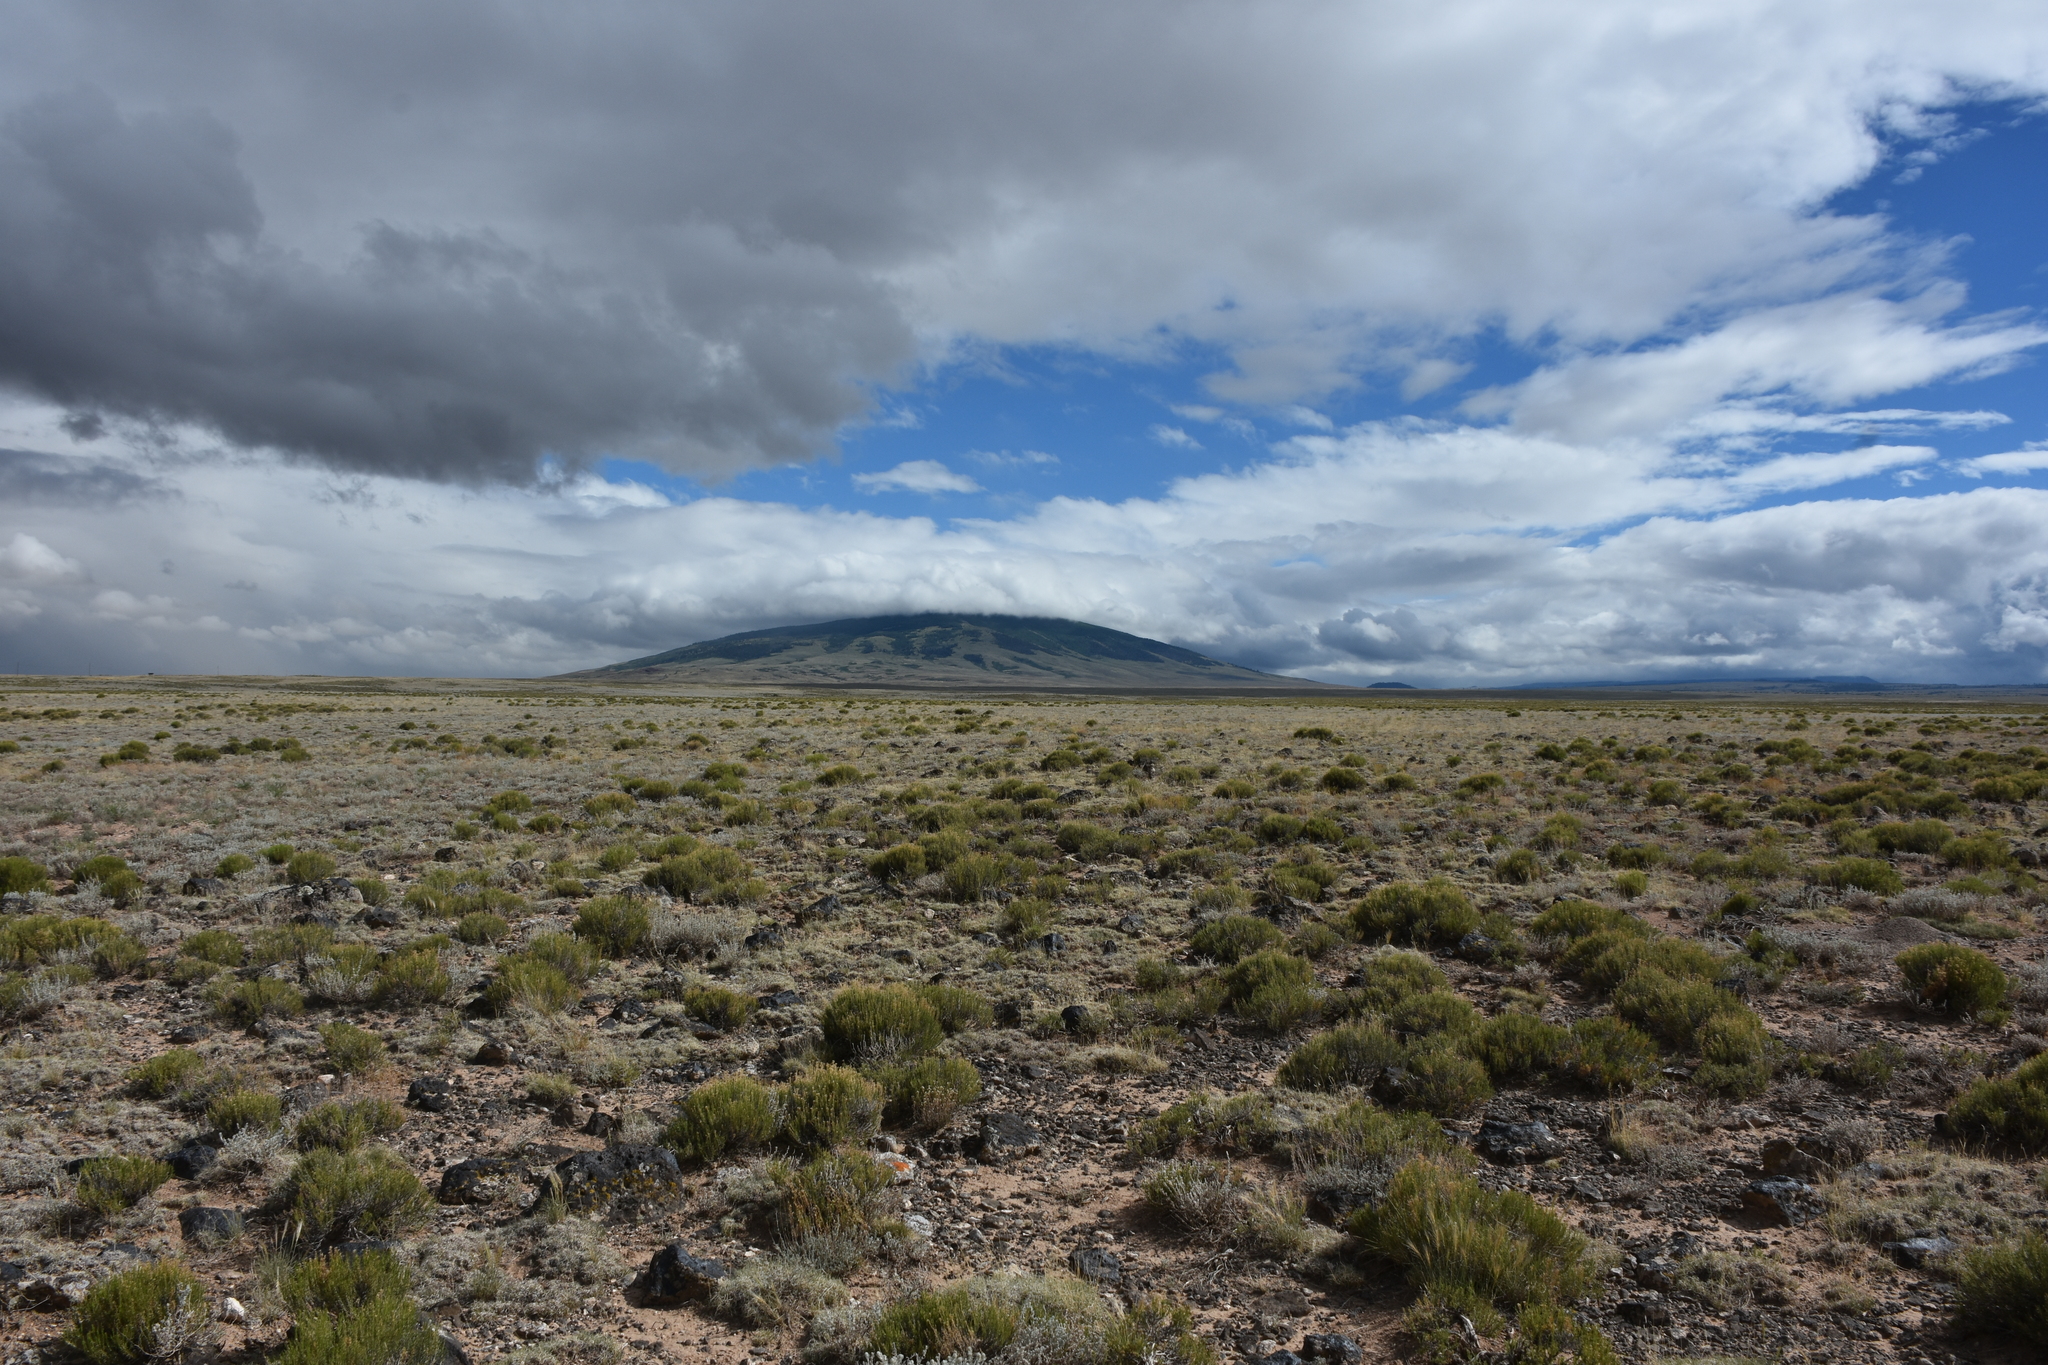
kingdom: Plantae
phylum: Tracheophyta
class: Magnoliopsida
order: Asterales
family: Asteraceae
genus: Gutierrezia
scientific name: Gutierrezia sarothrae
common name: Broom snakeweed
